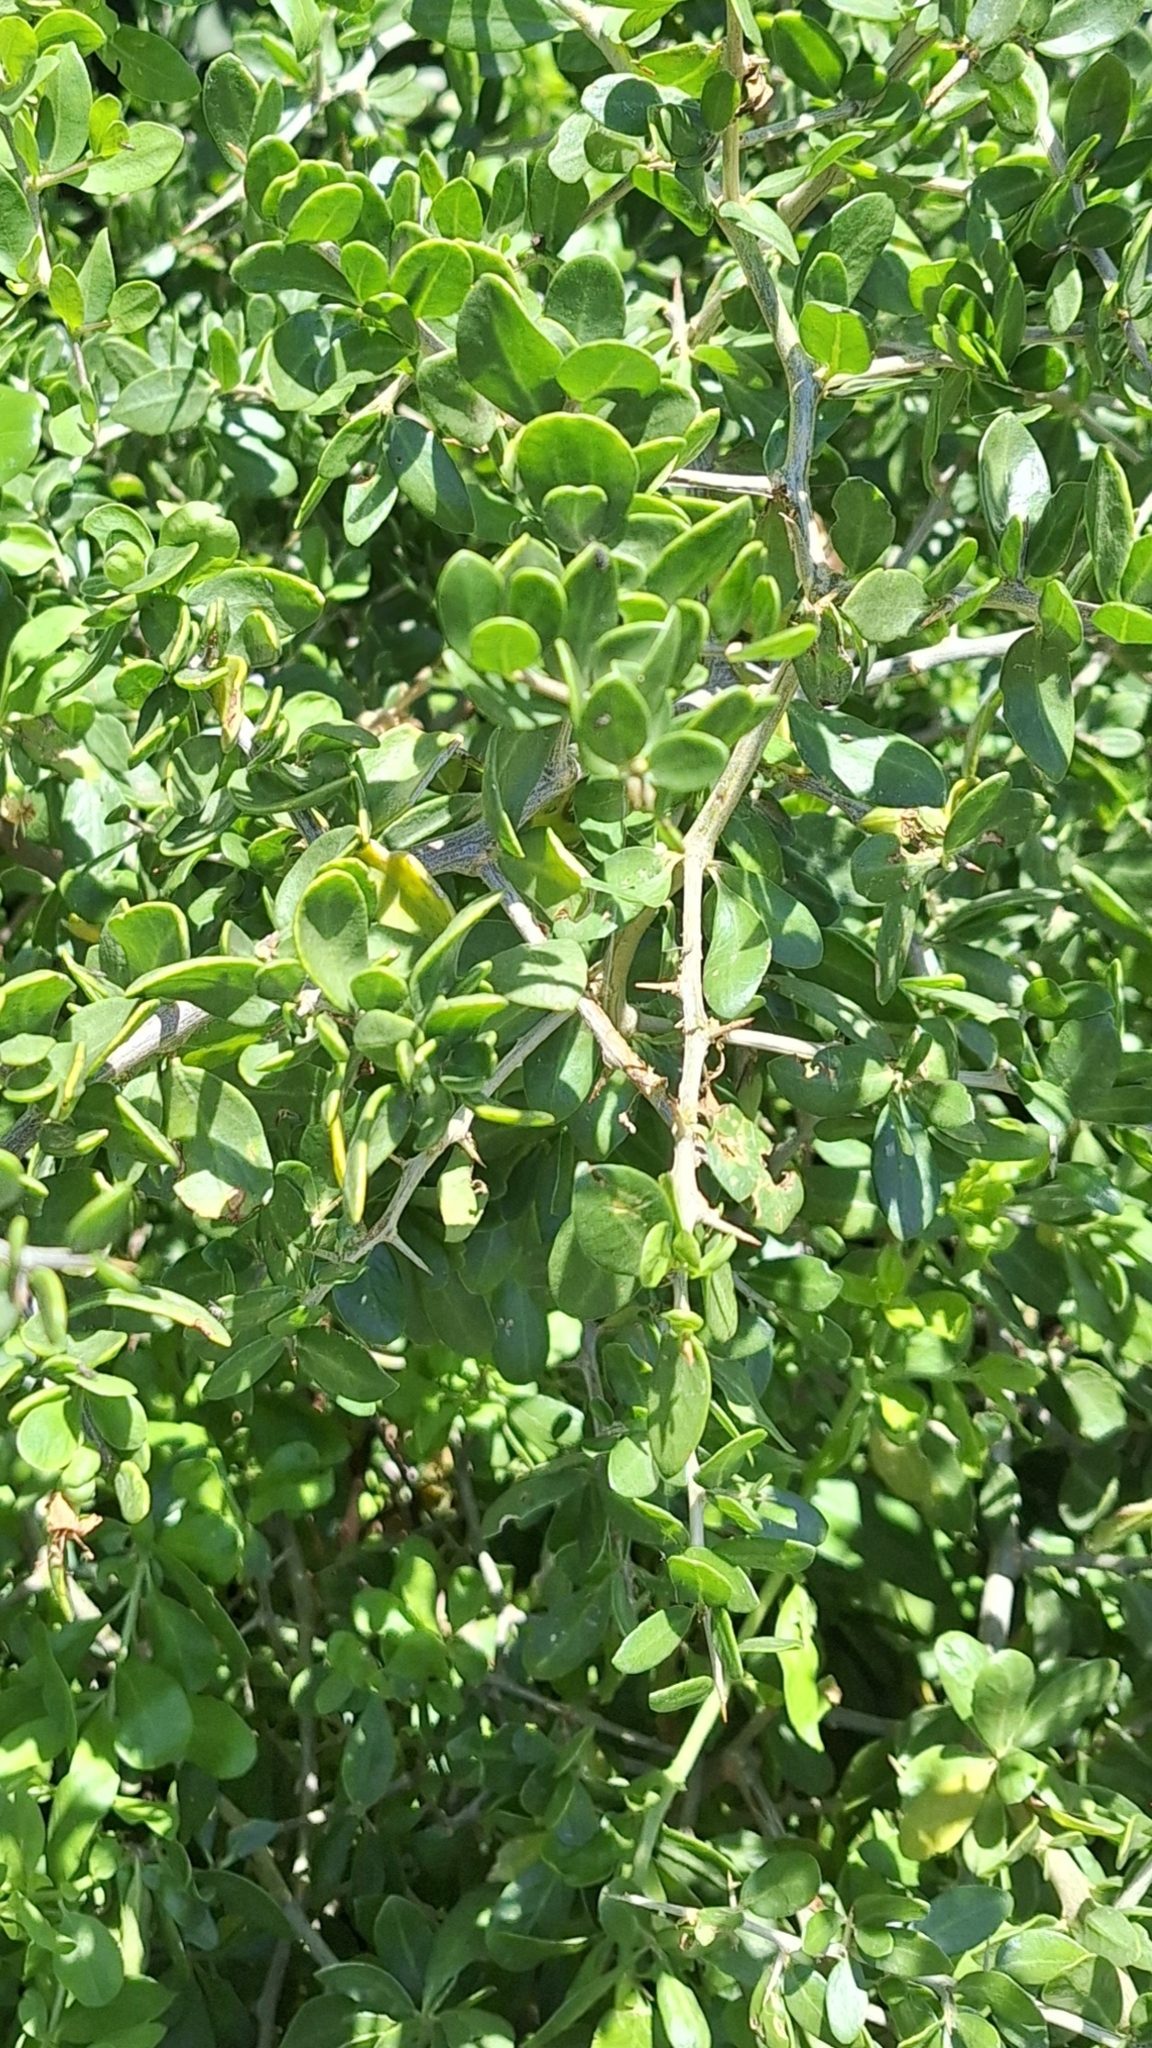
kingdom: Plantae
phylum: Tracheophyta
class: Magnoliopsida
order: Solanales
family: Solanaceae
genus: Lycium
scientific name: Lycium ferocissimum
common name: African boxthorn
